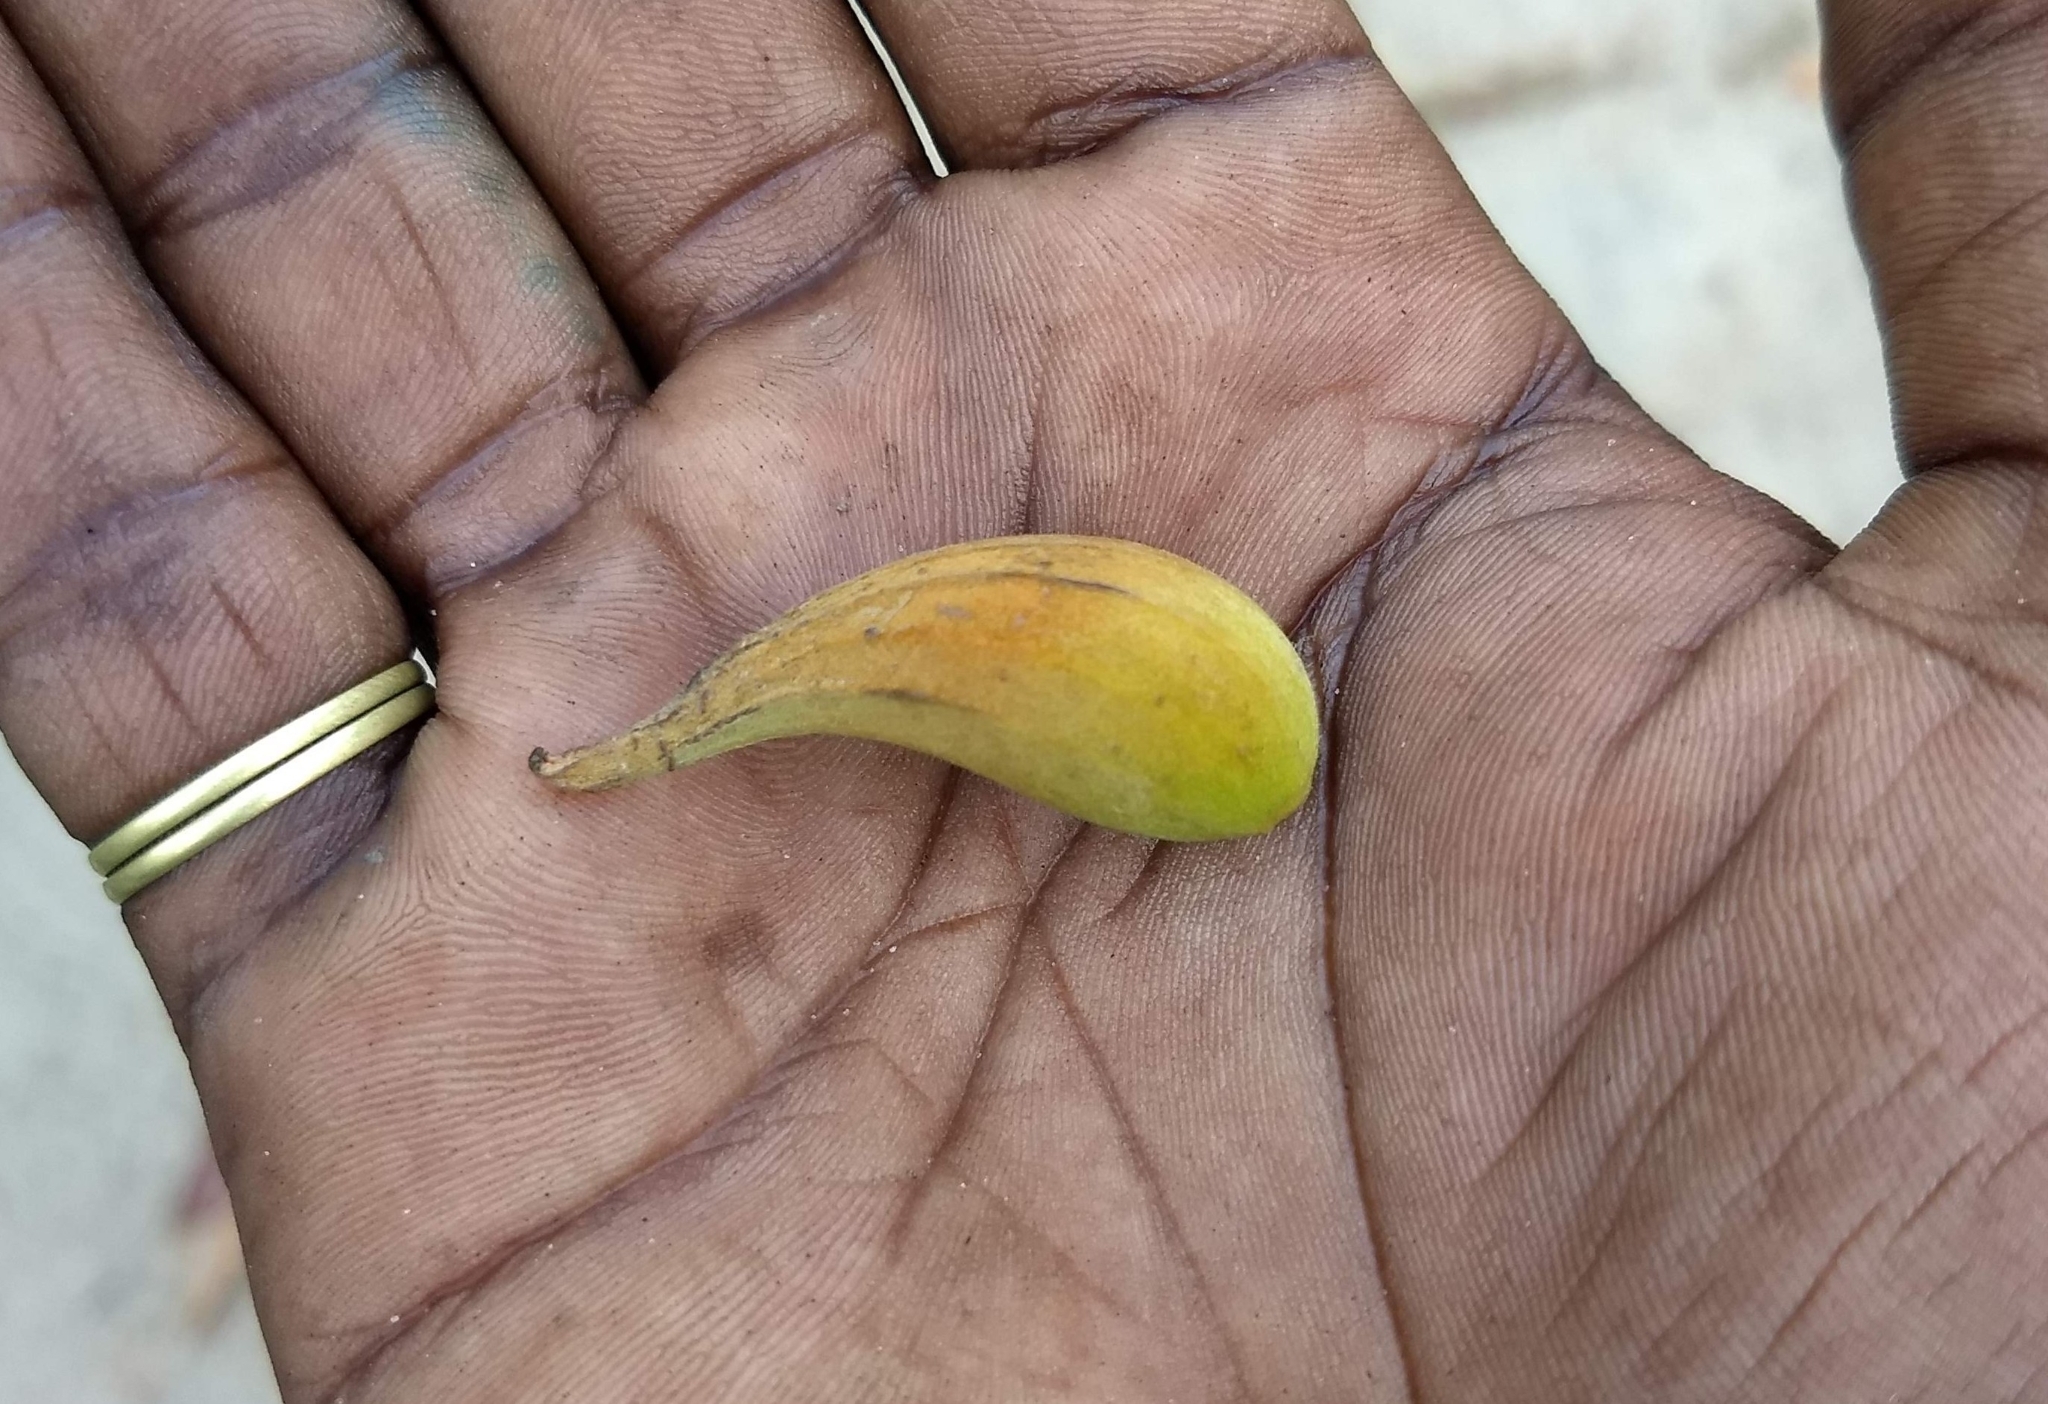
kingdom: Plantae
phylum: Tracheophyta
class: Magnoliopsida
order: Lamiales
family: Bignoniaceae
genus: Spathodea
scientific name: Spathodea campanulata
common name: African tuliptree
